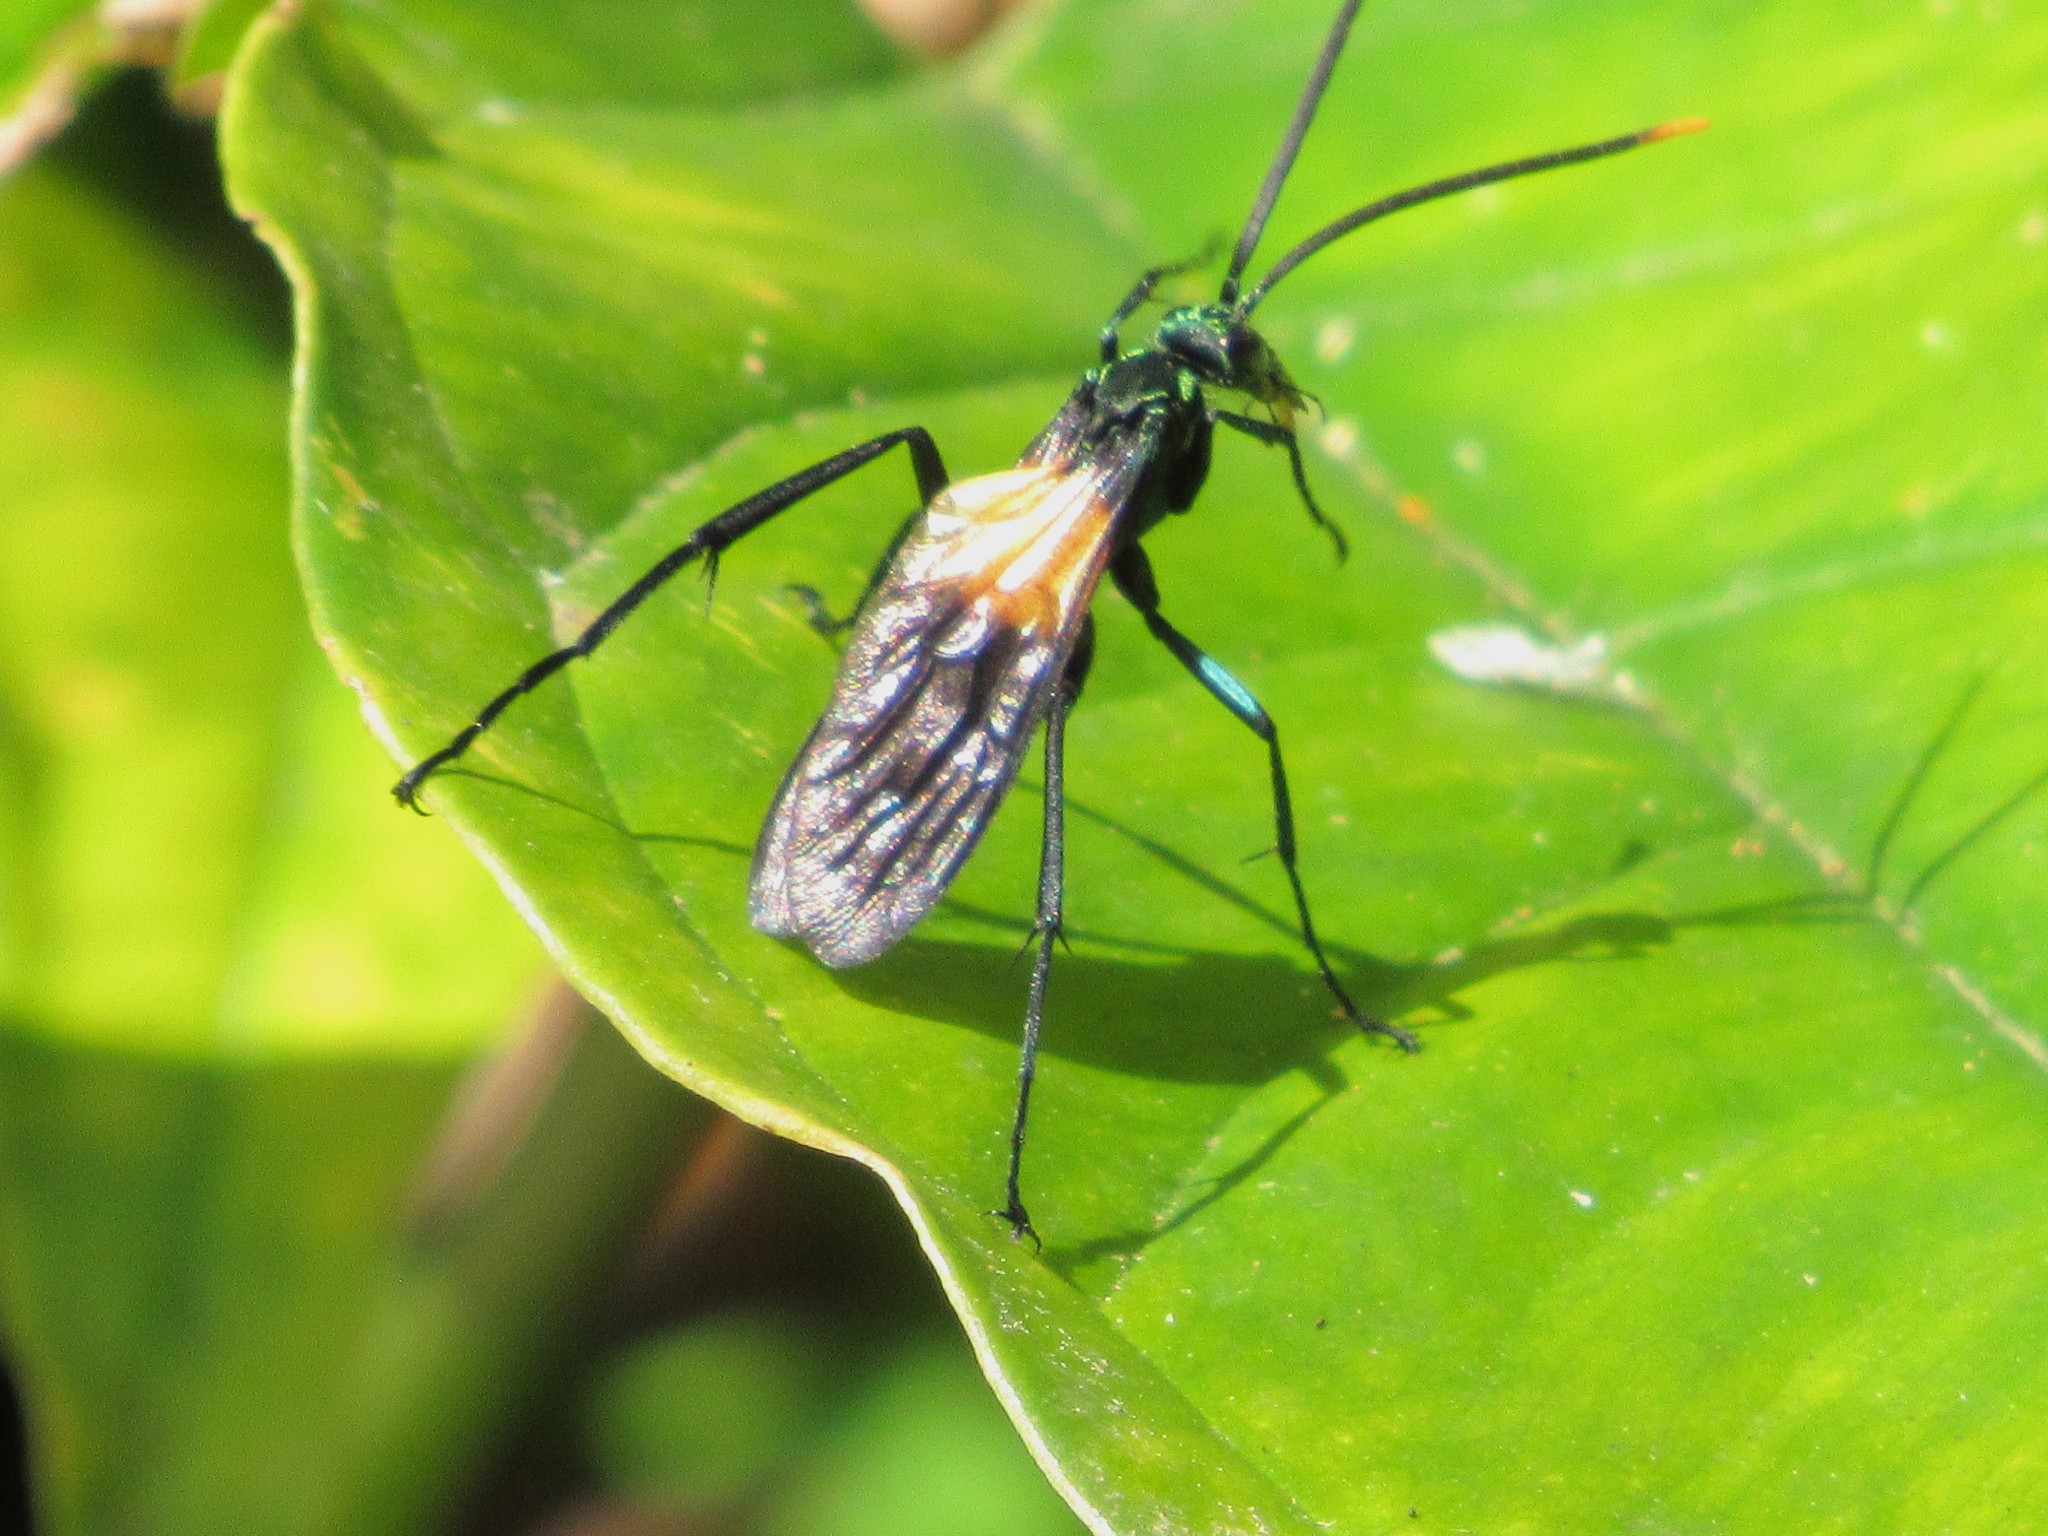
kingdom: Animalia
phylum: Arthropoda
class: Insecta
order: Hymenoptera
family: Pompilidae
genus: Pepsis
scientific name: Pepsis completa
